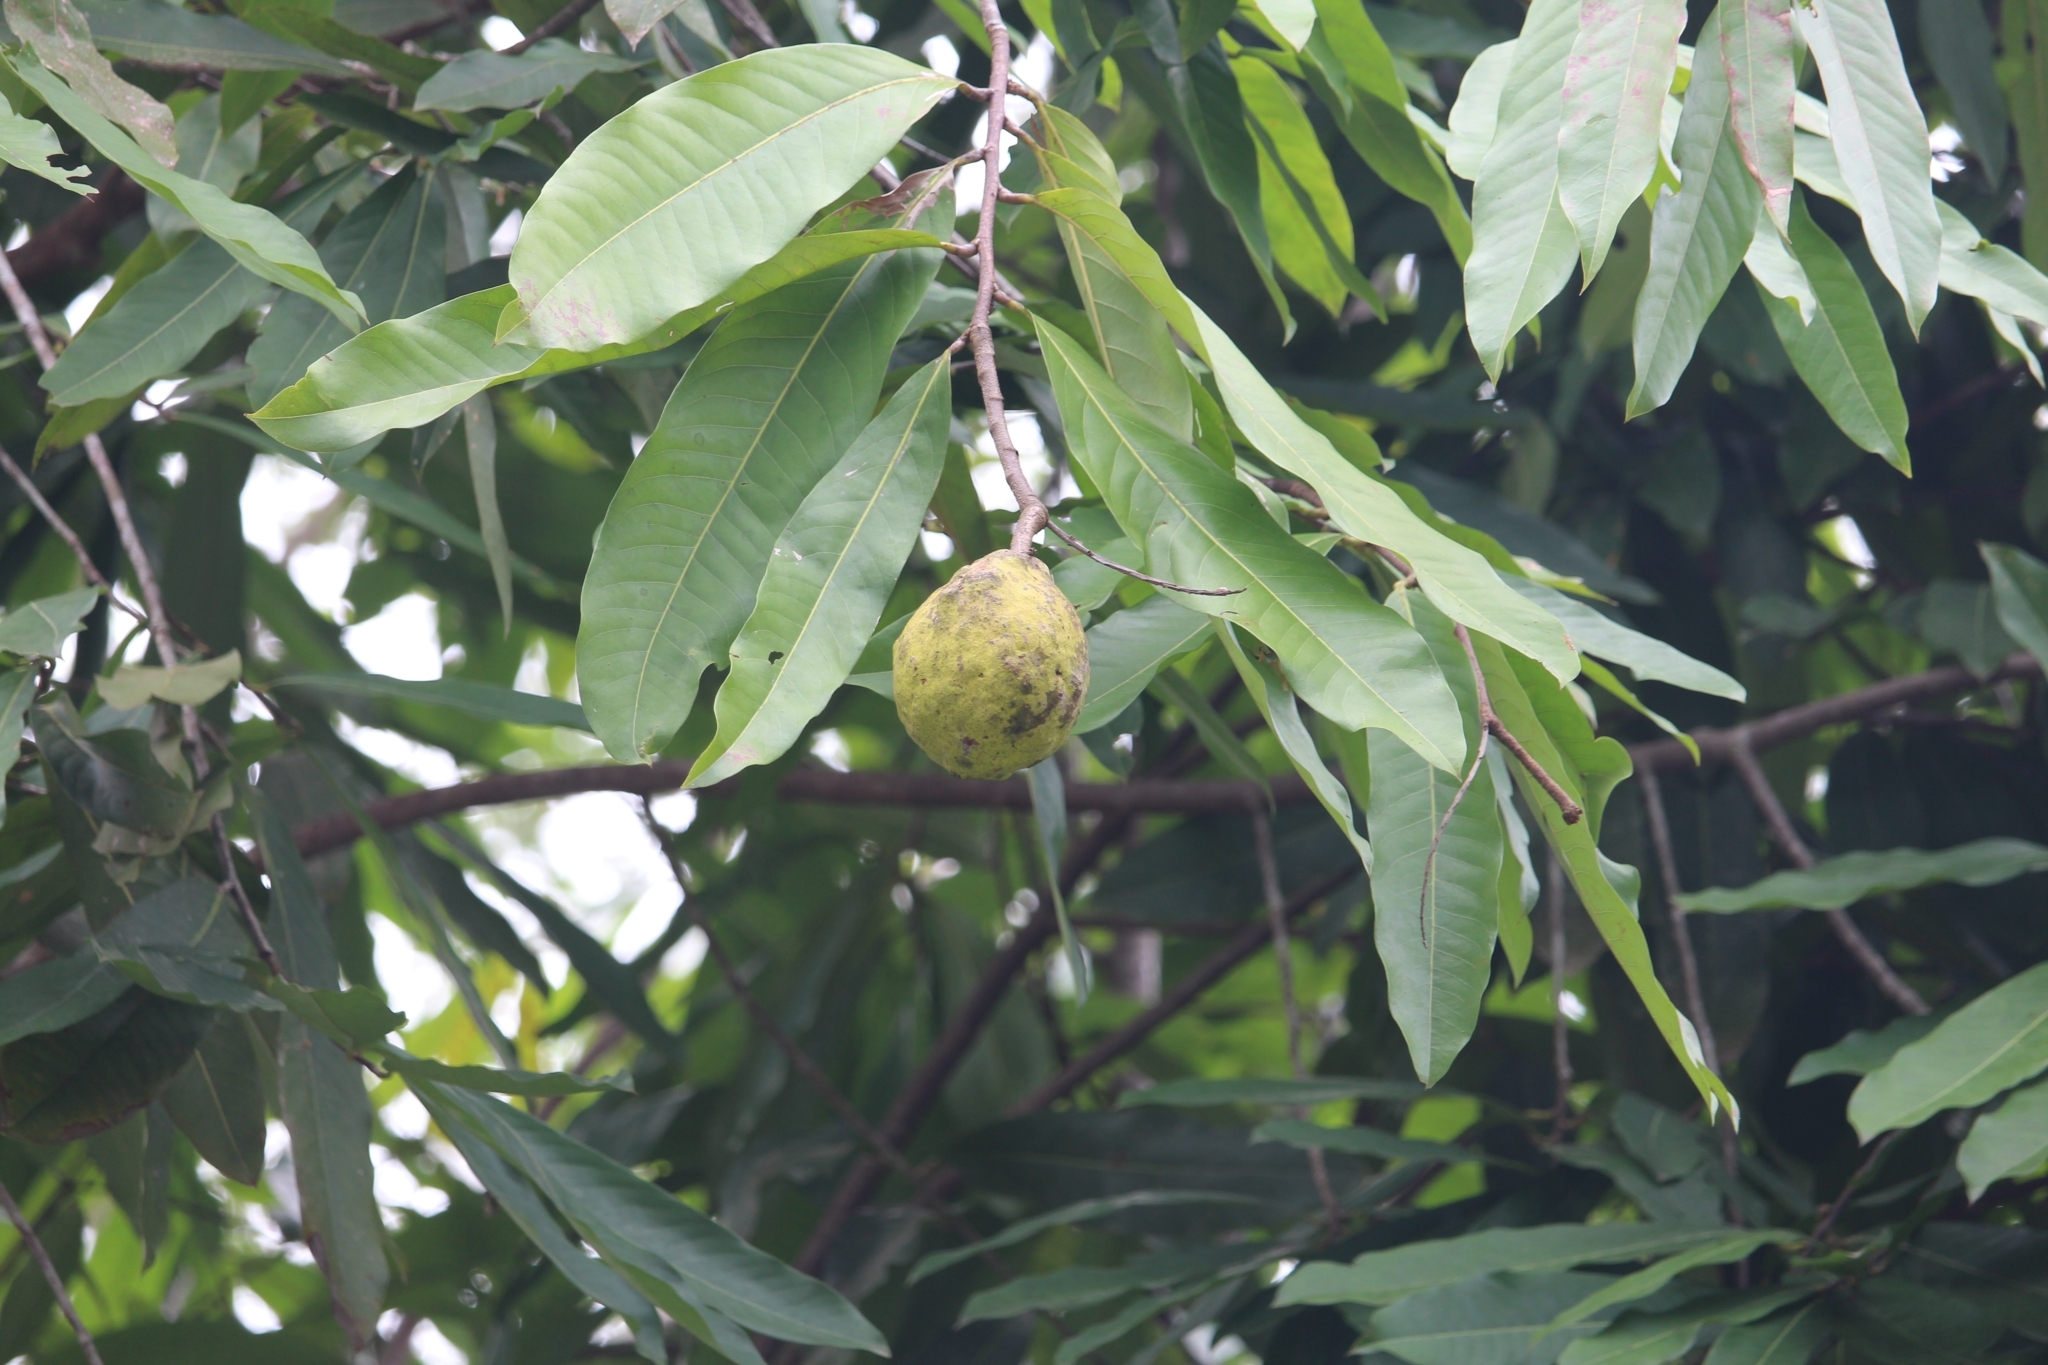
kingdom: Plantae
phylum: Tracheophyta
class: Magnoliopsida
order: Malpighiales
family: Chrysobalanaceae
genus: Moquilea
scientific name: Moquilea platypus
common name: Sansapote
